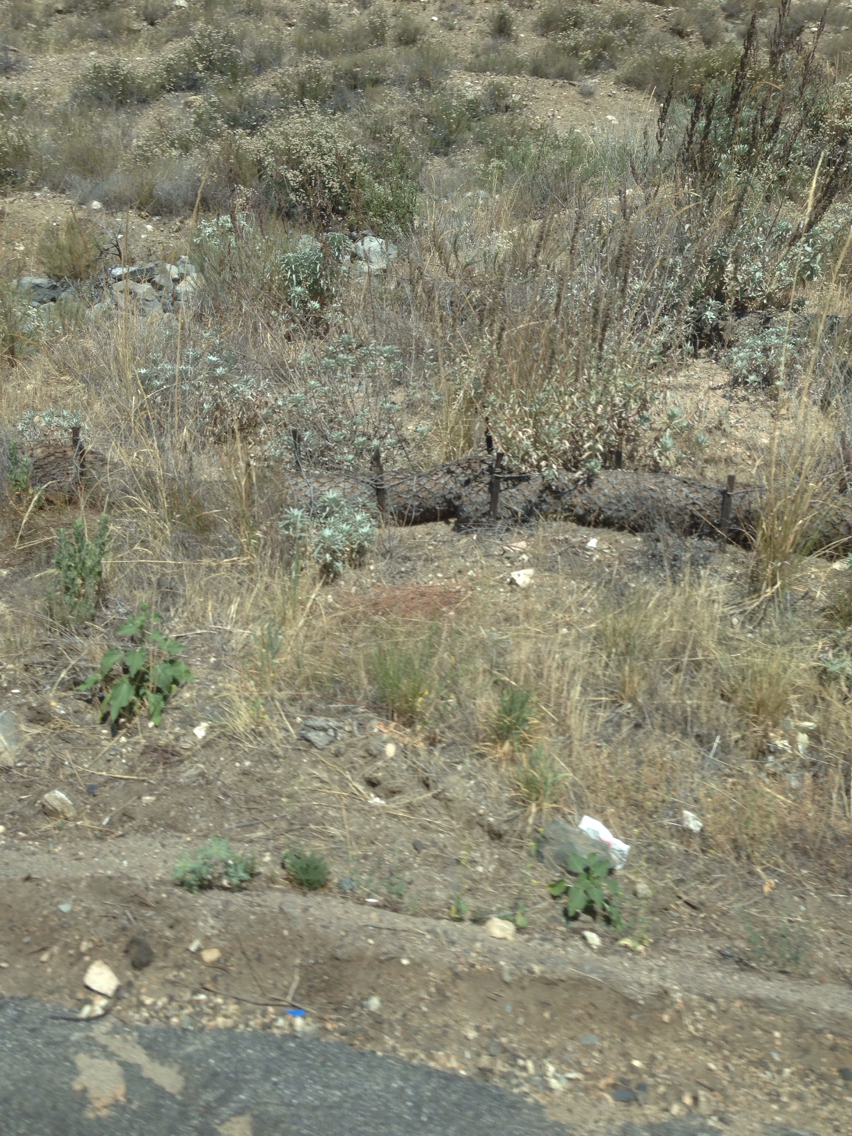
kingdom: Plantae
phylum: Tracheophyta
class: Magnoliopsida
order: Caryophyllales
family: Polygonaceae
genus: Eriogonum
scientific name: Eriogonum fasciculatum
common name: California wild buckwheat
